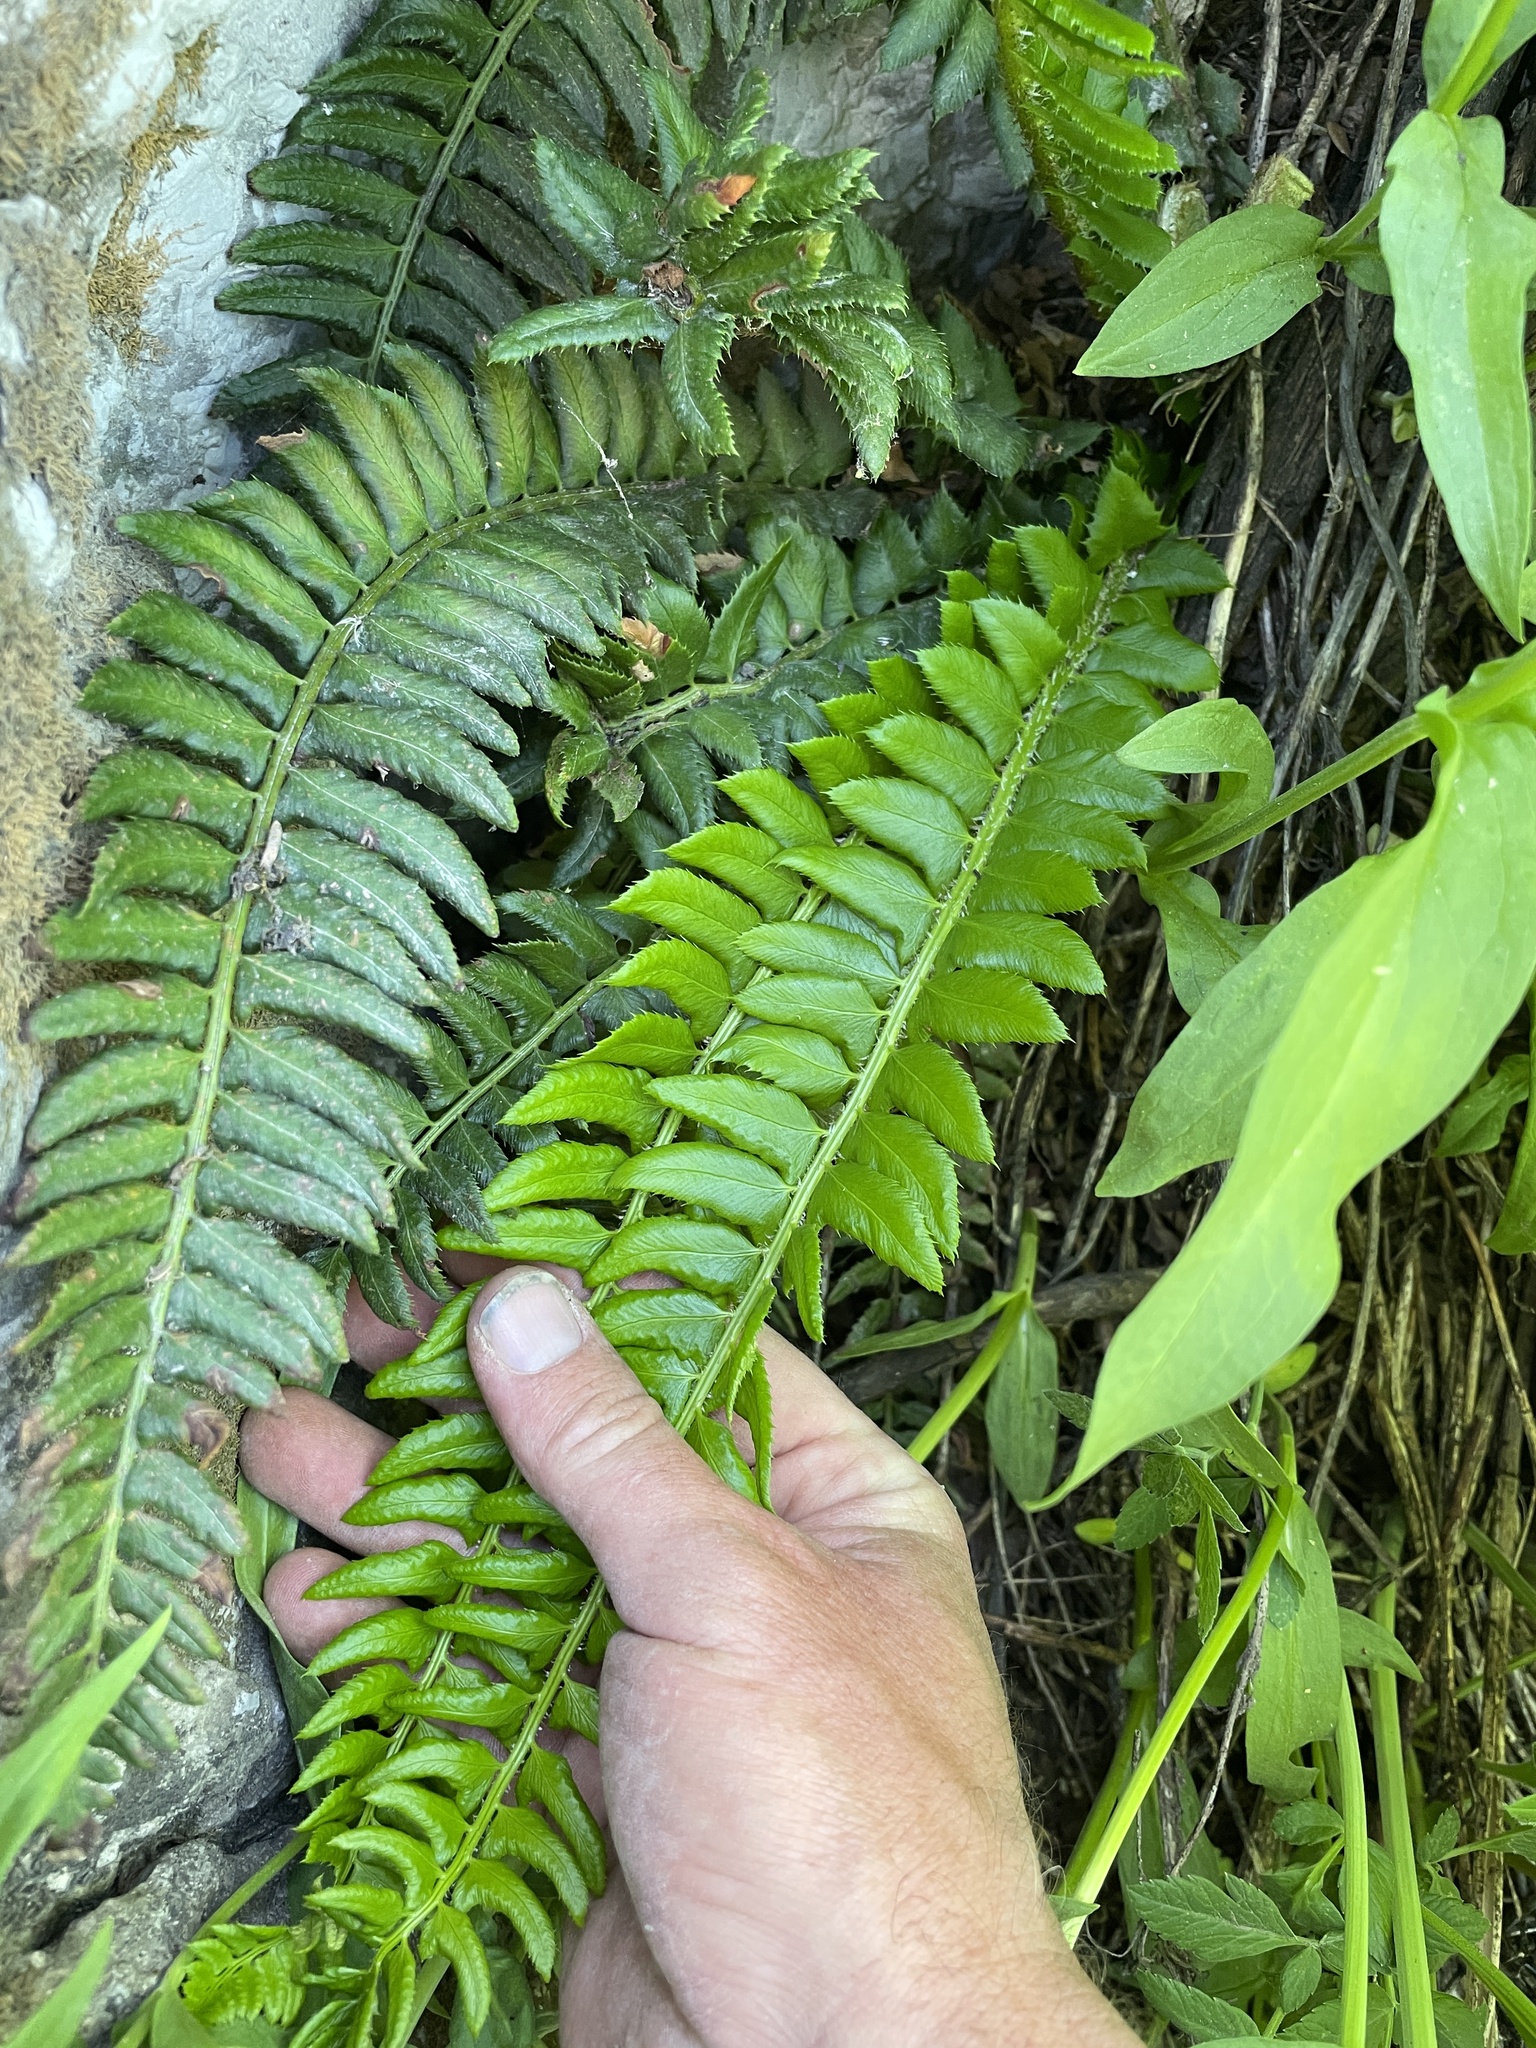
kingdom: Plantae
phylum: Tracheophyta
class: Polypodiopsida
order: Polypodiales
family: Dryopteridaceae
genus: Polystichum
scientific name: Polystichum lonchitis
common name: Holly fern
